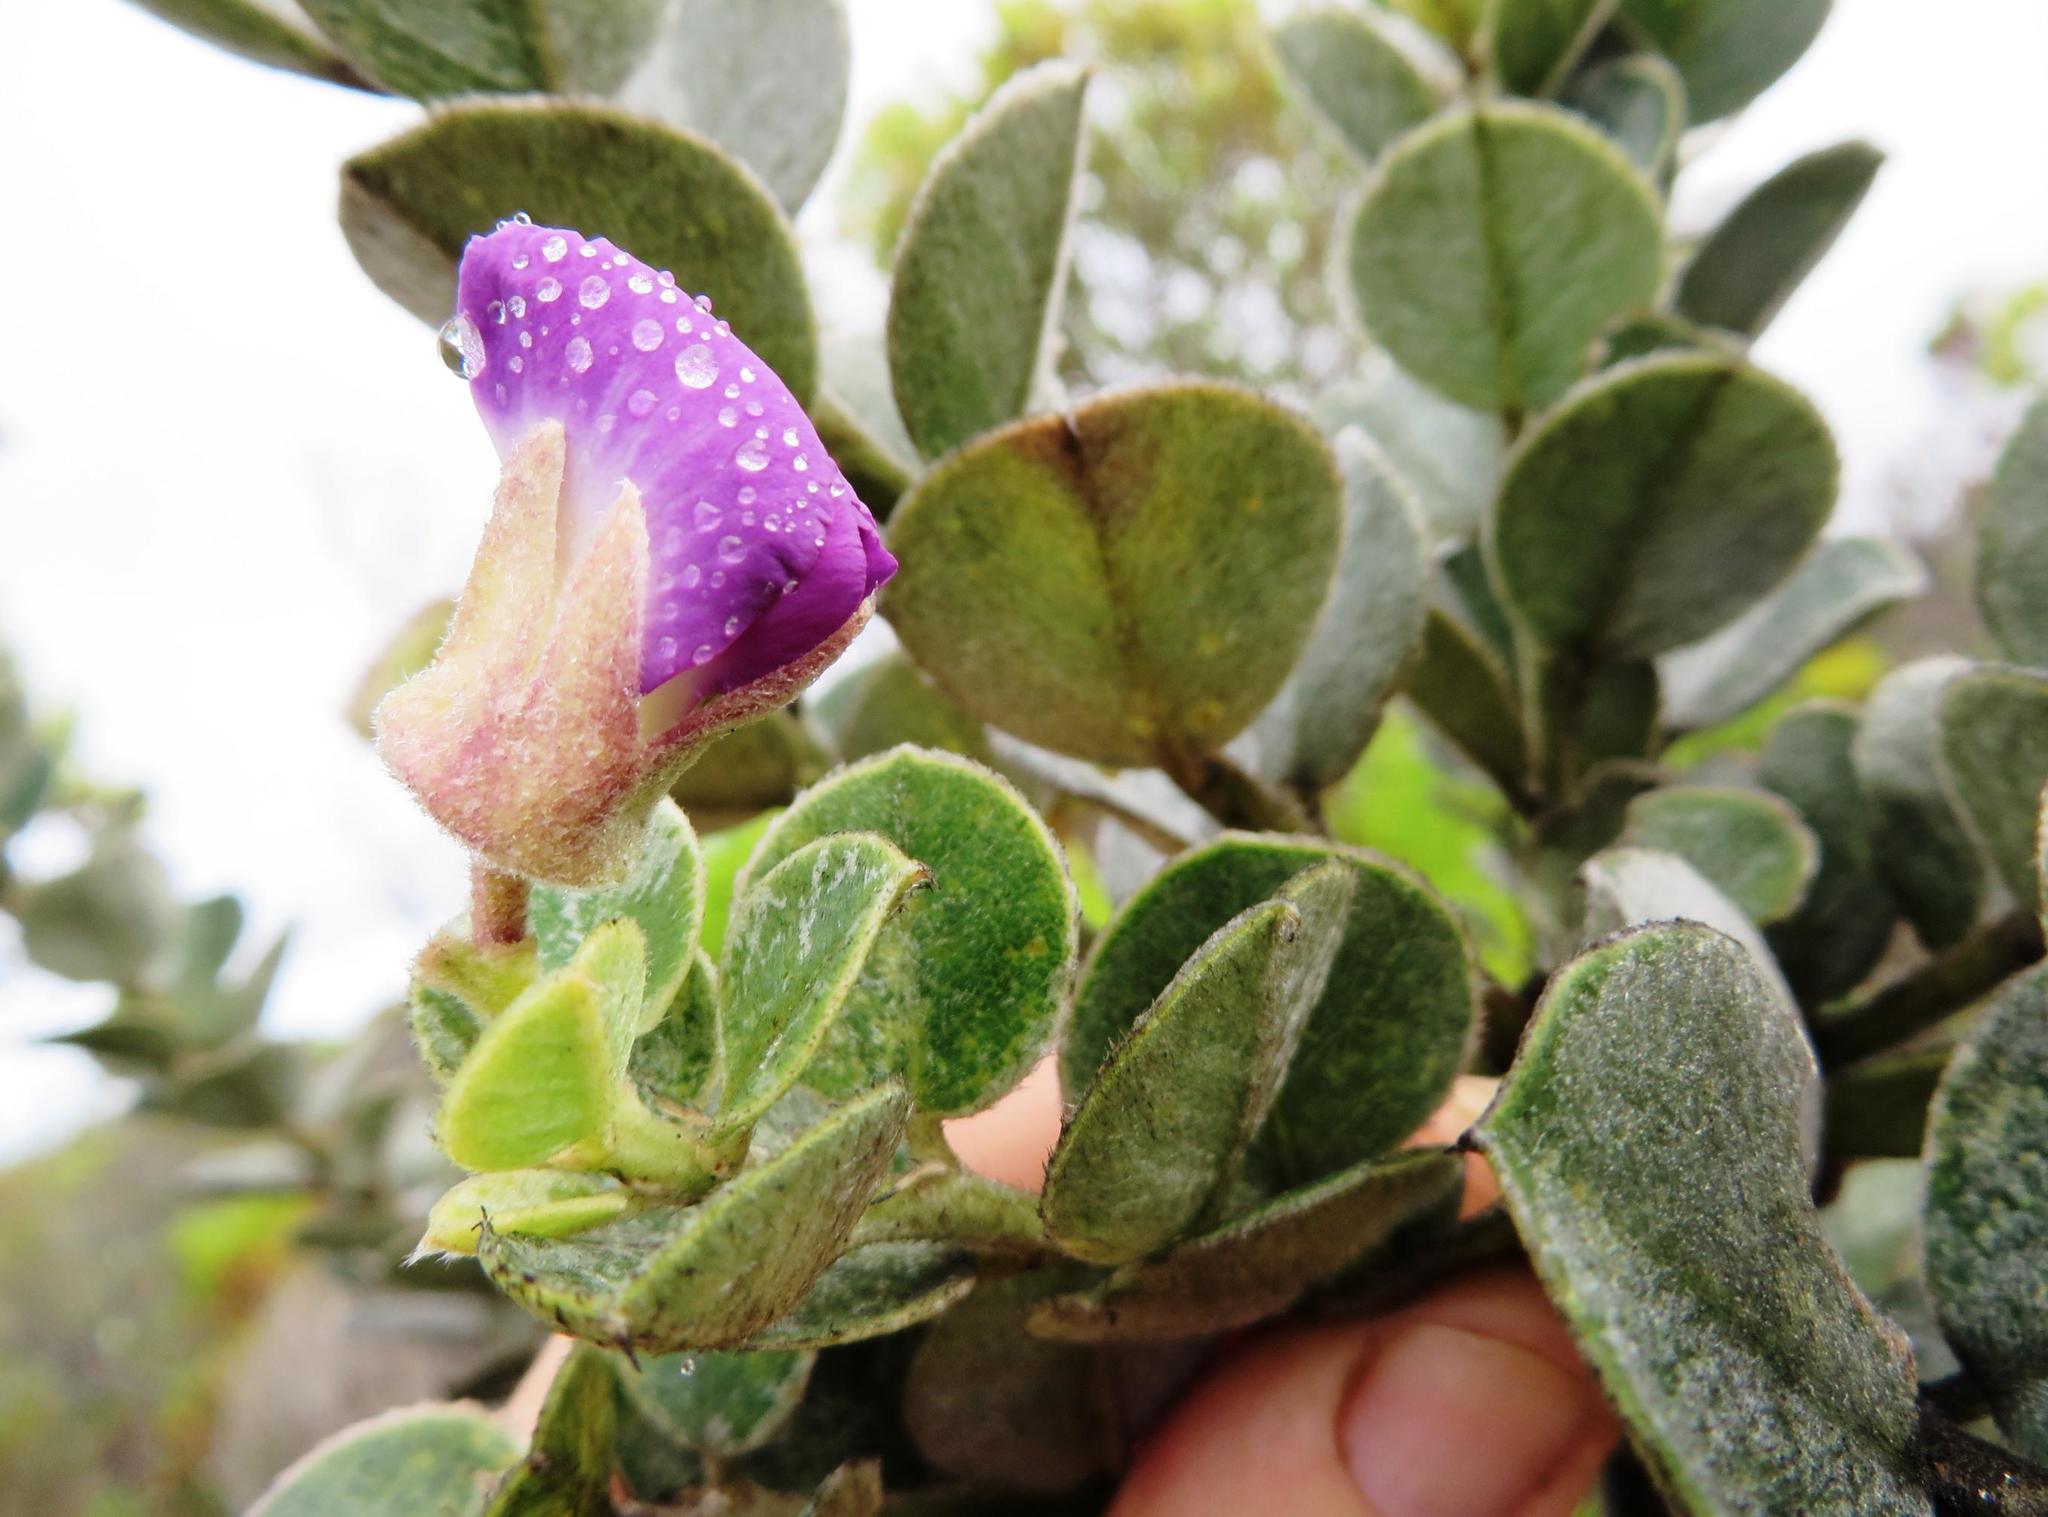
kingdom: Plantae
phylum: Tracheophyta
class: Magnoliopsida
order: Fabales
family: Fabaceae
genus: Podalyria
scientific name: Podalyria burchellii
